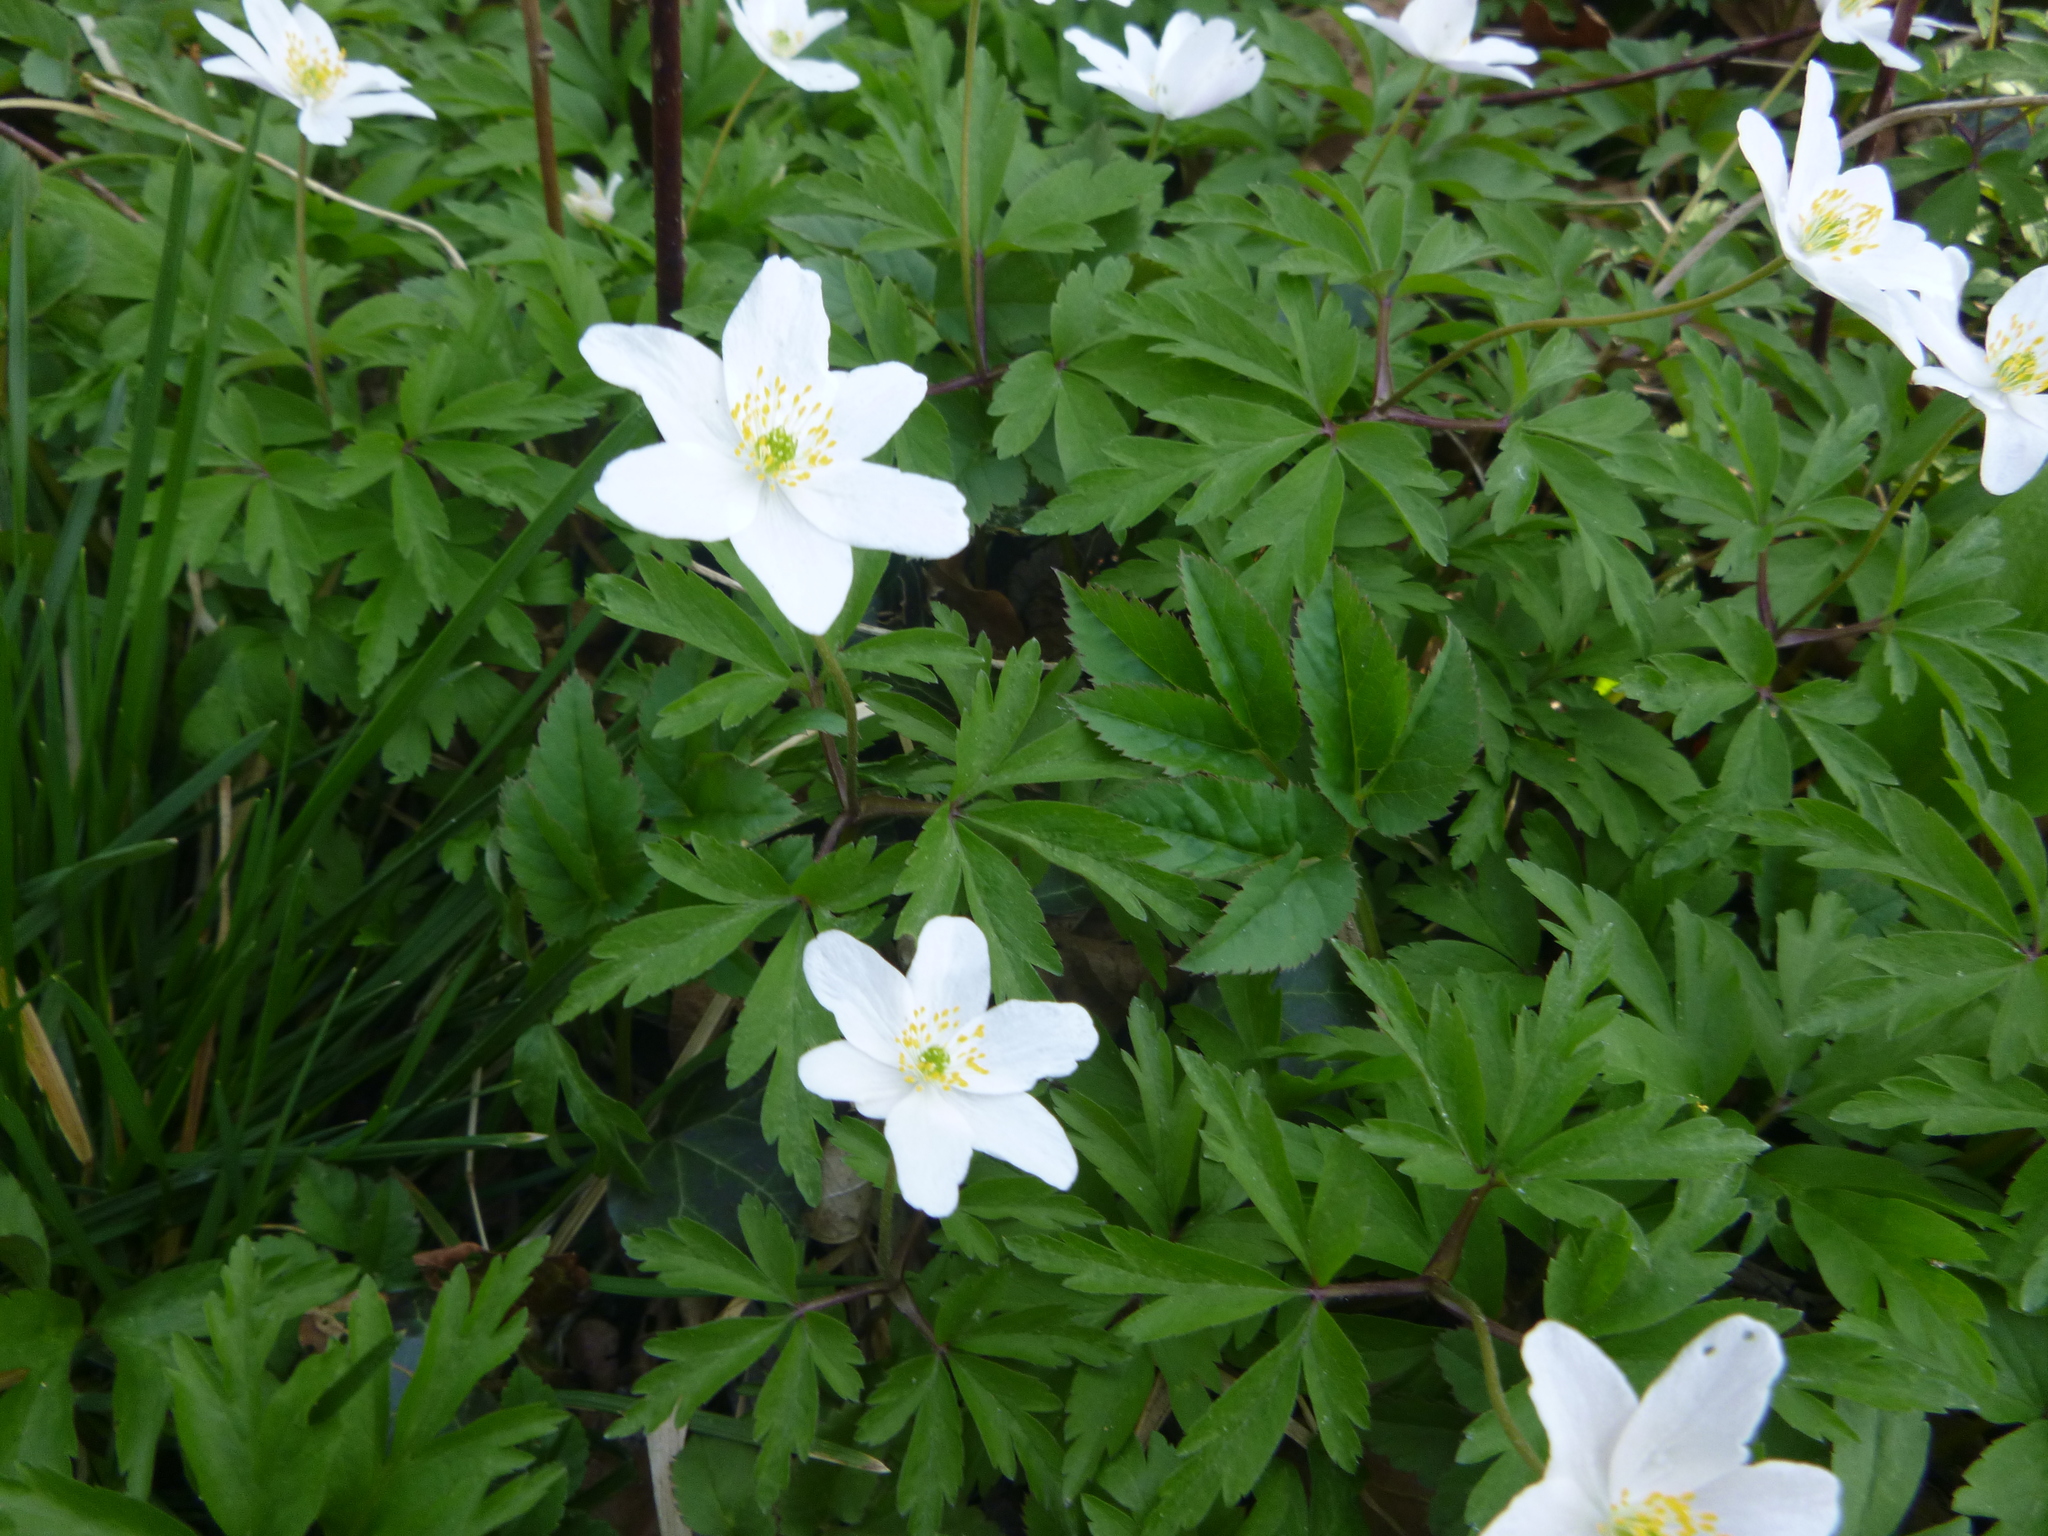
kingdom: Plantae
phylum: Tracheophyta
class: Magnoliopsida
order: Ranunculales
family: Ranunculaceae
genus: Anemone
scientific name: Anemone nemorosa
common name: Wood anemone
